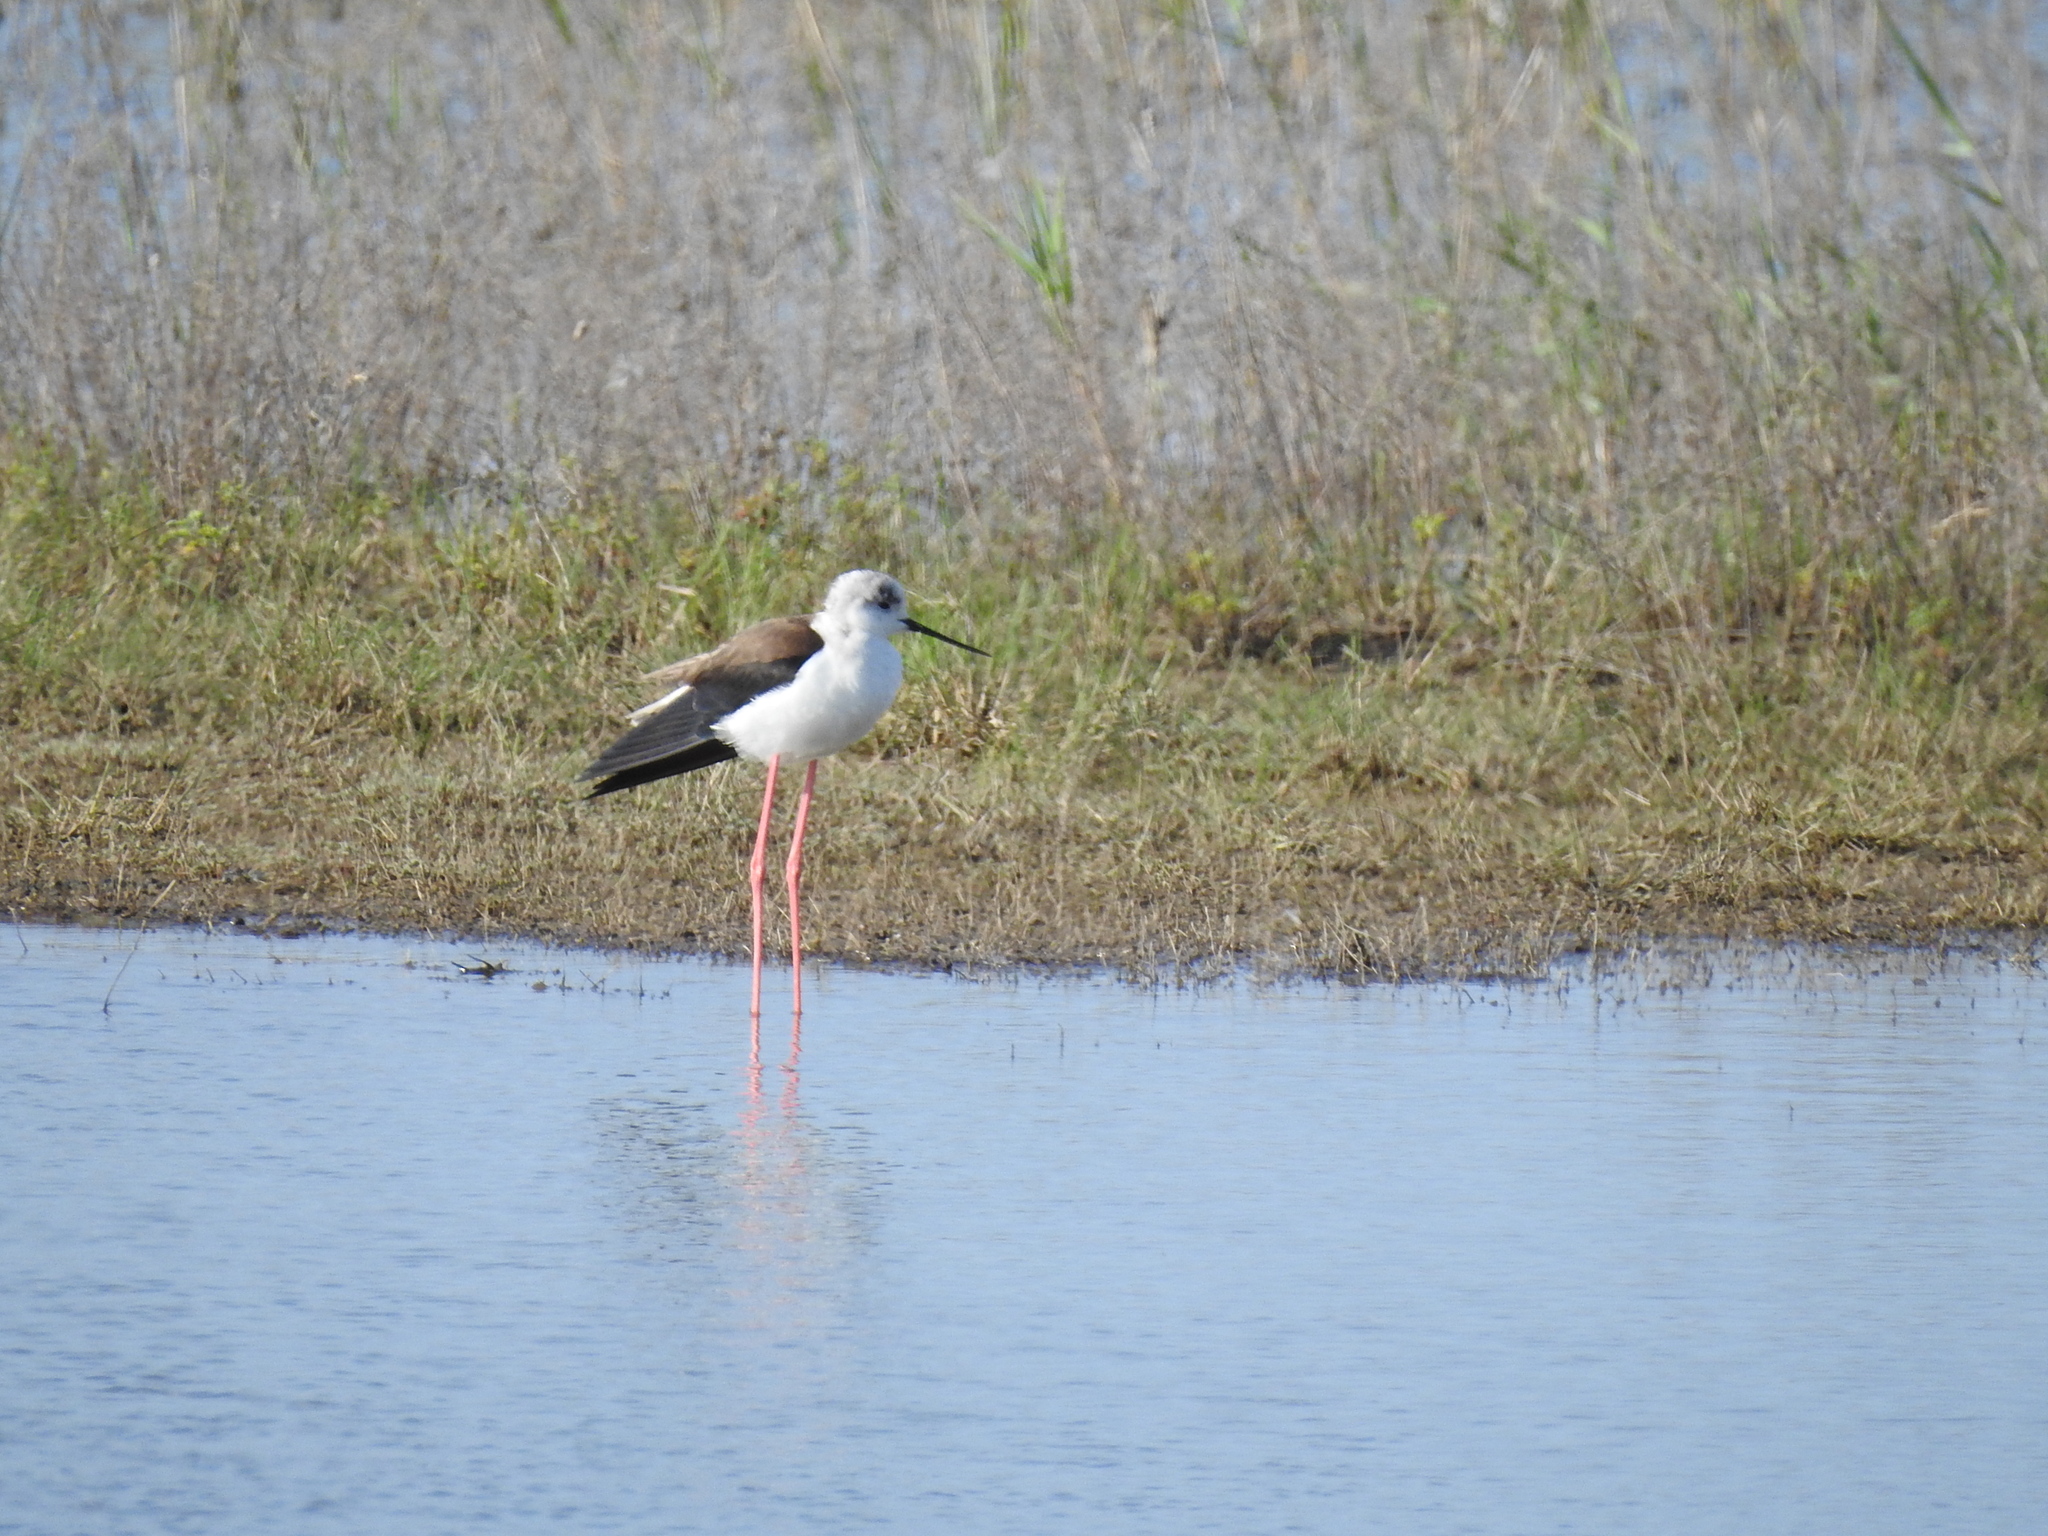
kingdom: Animalia
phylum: Chordata
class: Aves
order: Charadriiformes
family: Recurvirostridae
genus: Himantopus
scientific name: Himantopus himantopus
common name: Black-winged stilt
